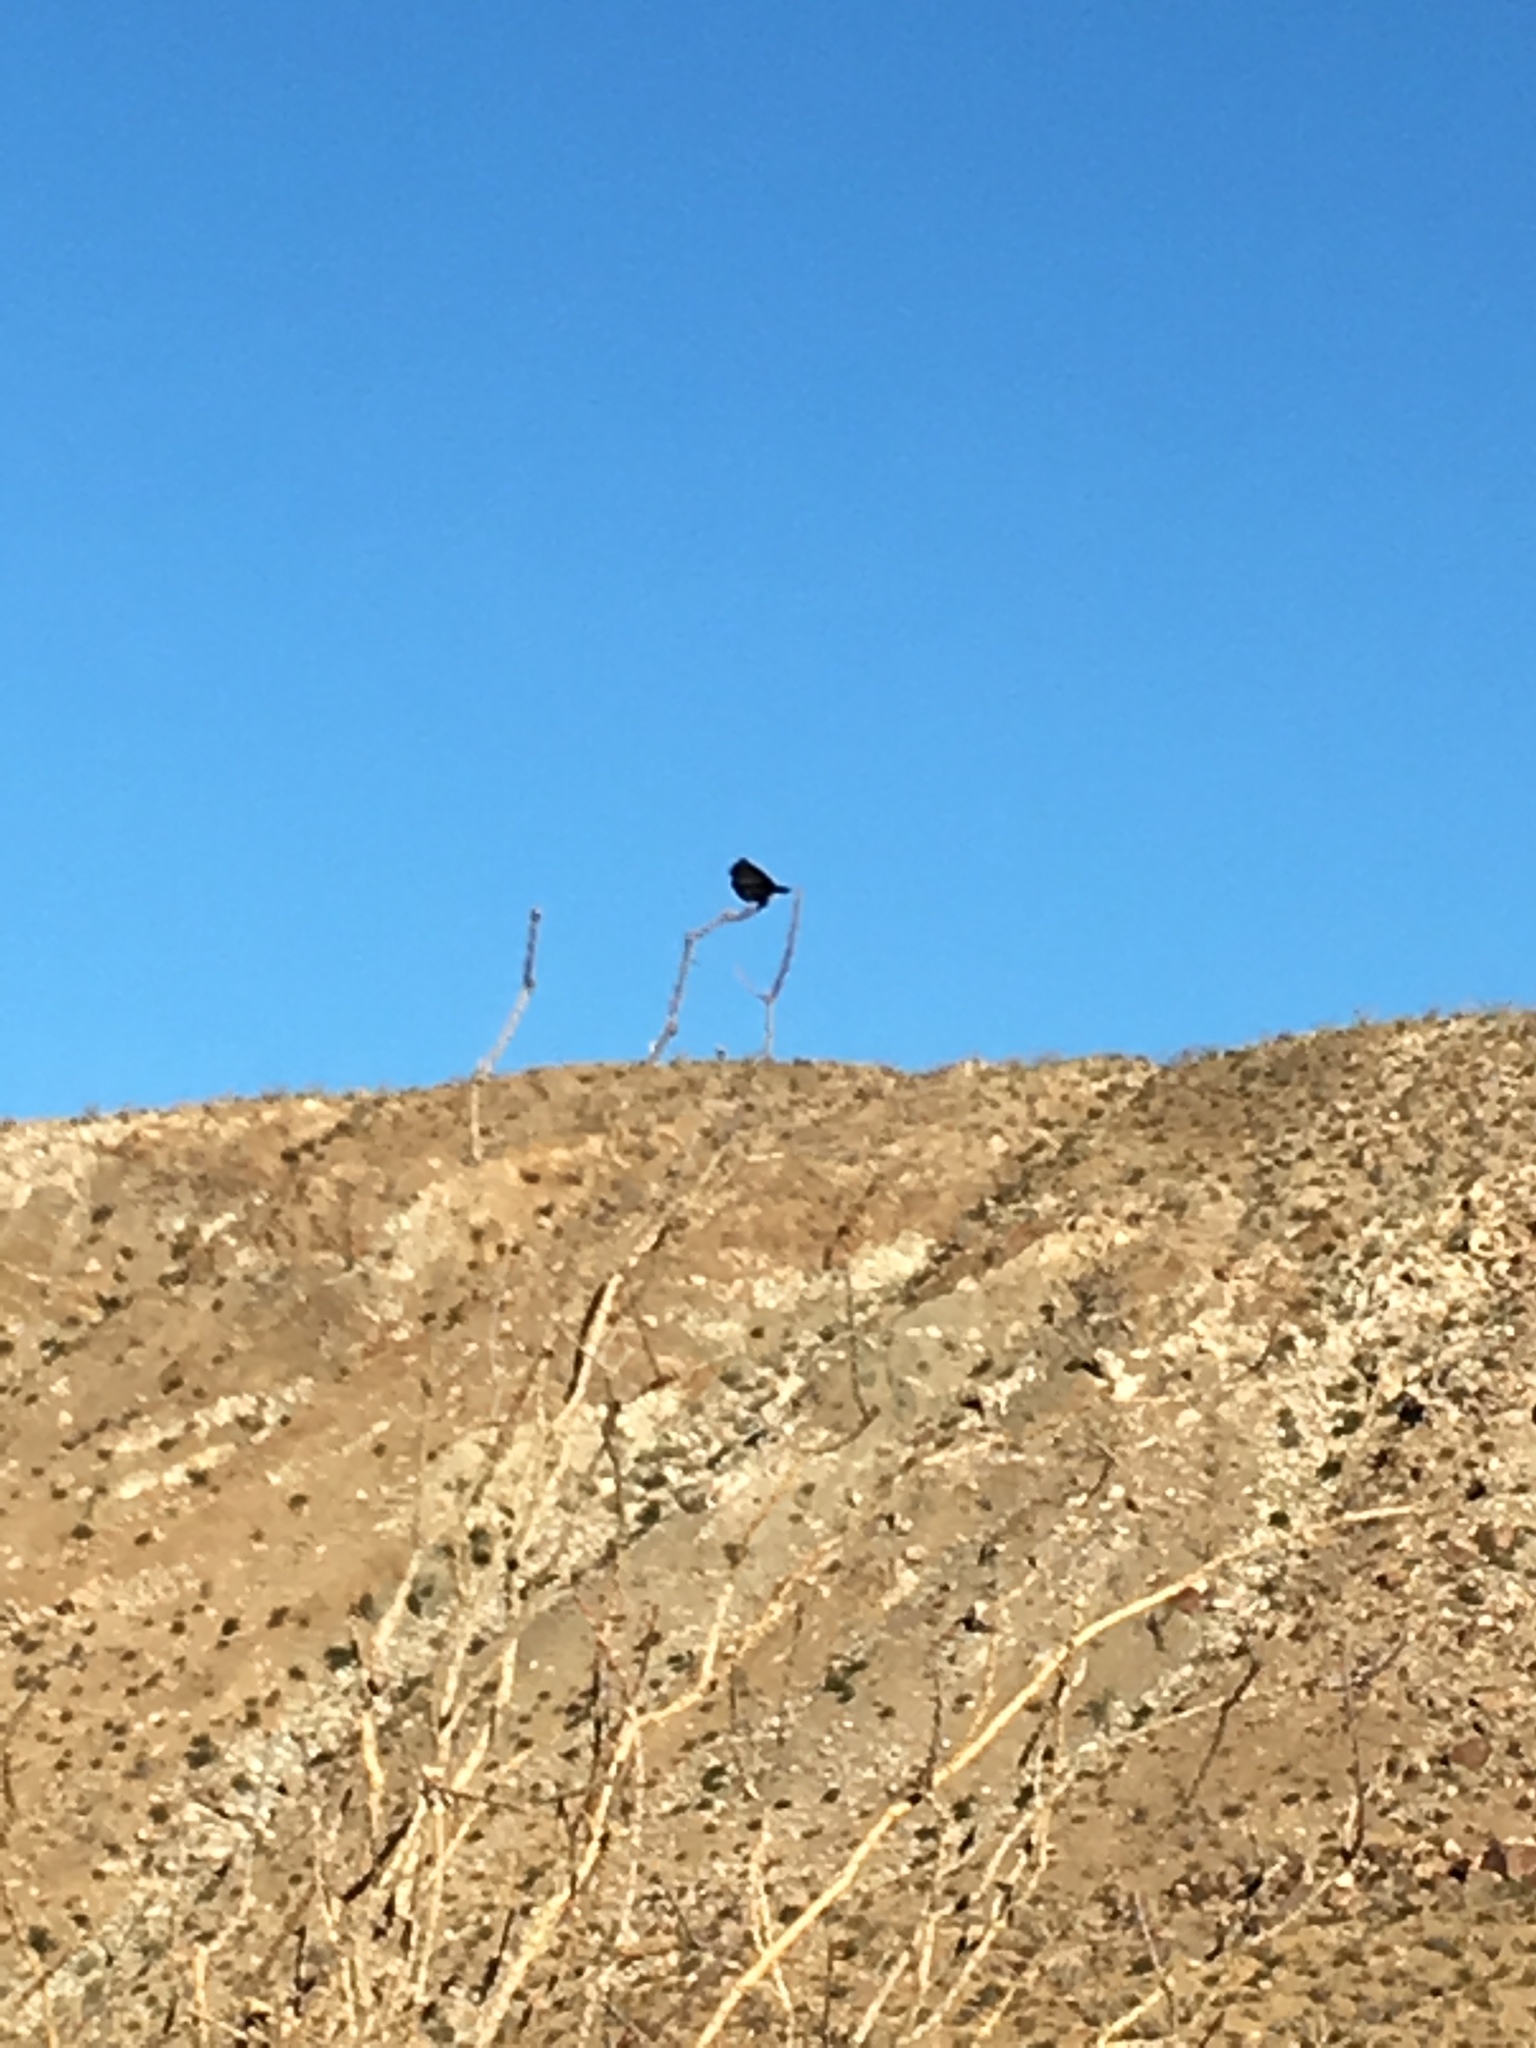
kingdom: Animalia
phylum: Chordata
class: Aves
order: Passeriformes
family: Ptilogonatidae
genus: Phainopepla
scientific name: Phainopepla nitens
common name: Phainopepla
